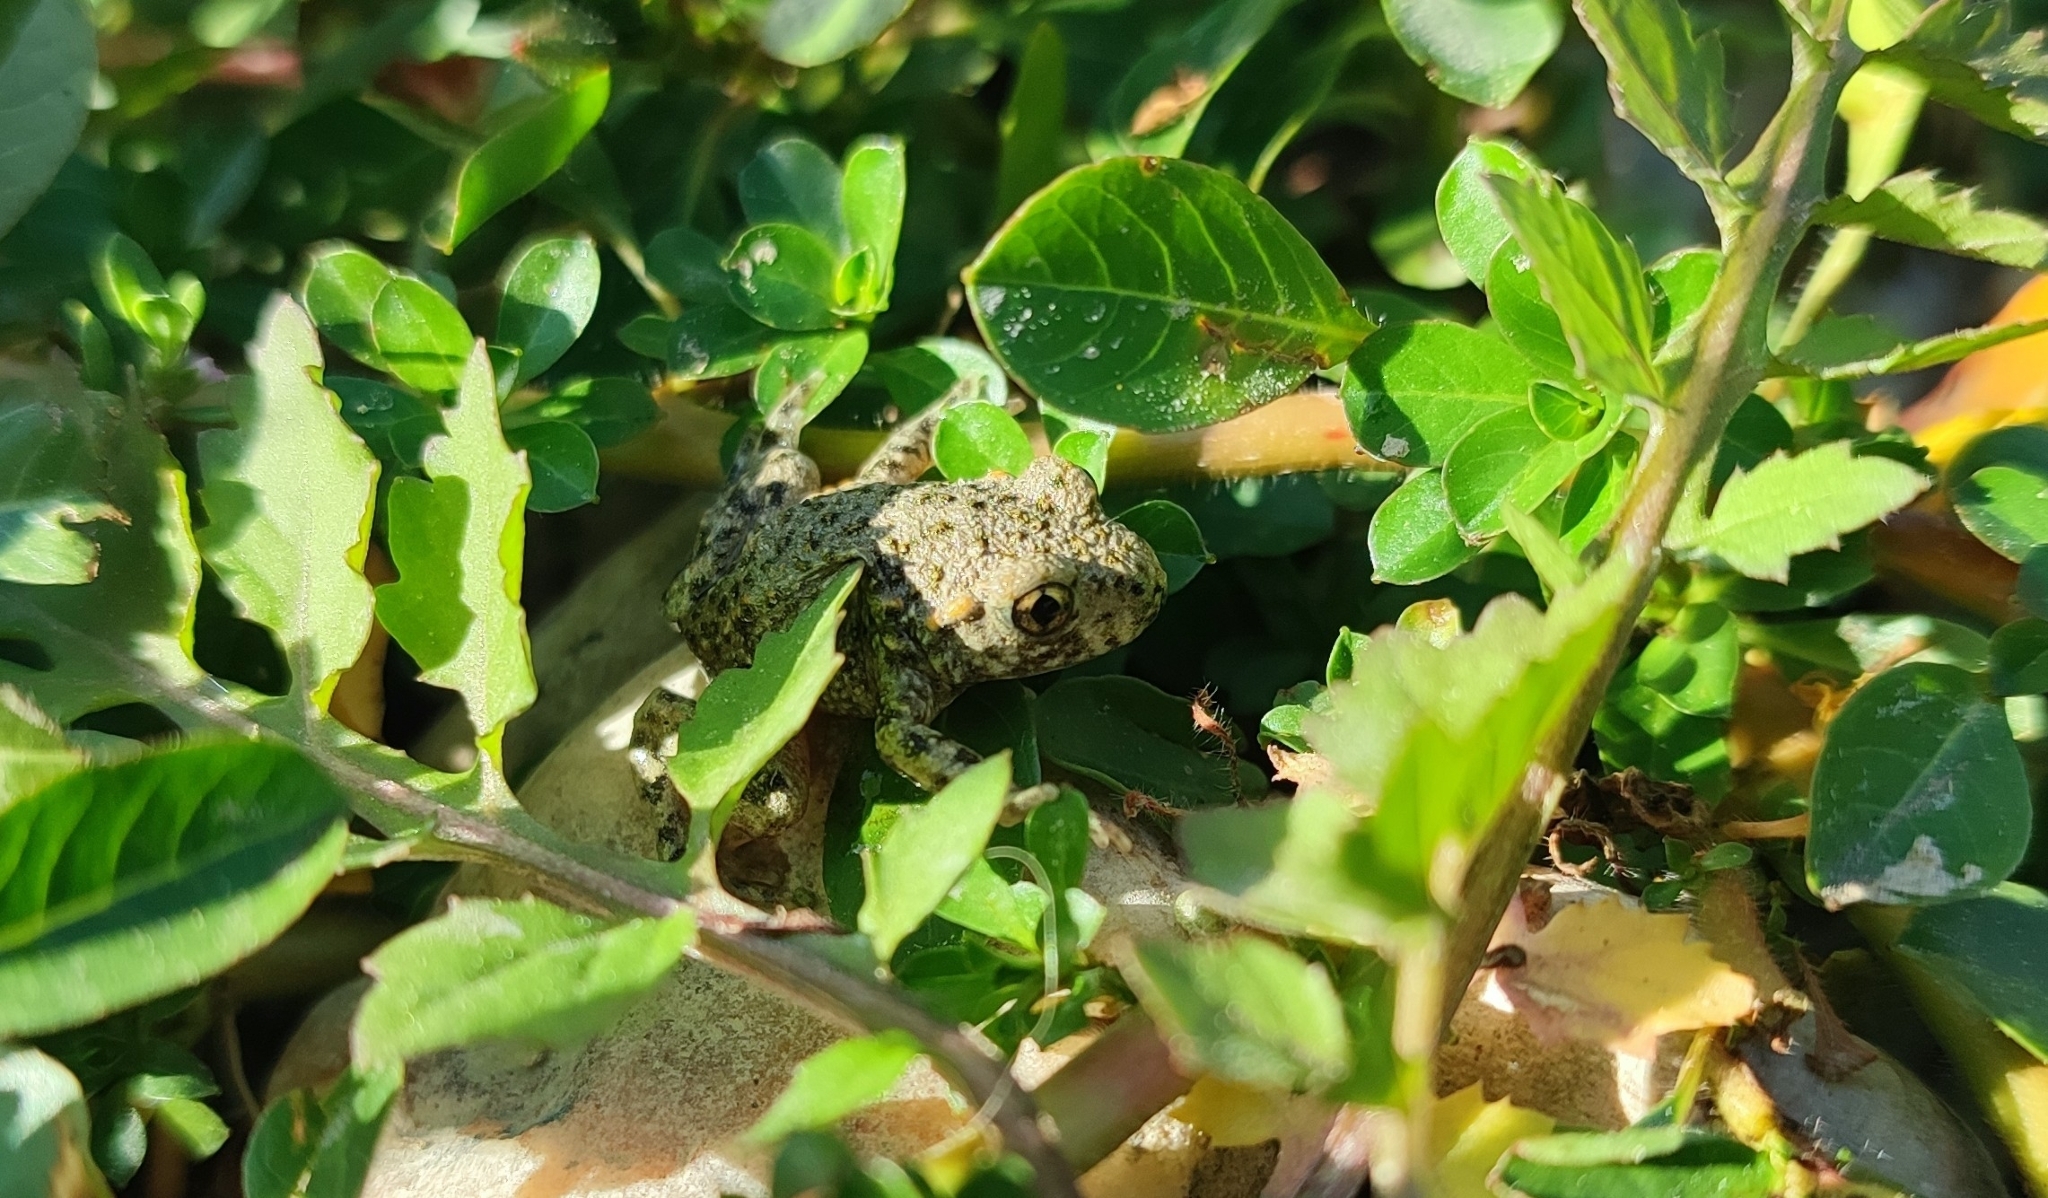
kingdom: Animalia
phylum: Chordata
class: Amphibia
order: Anura
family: Alytidae
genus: Alytes
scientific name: Alytes obstetricans
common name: Midwife toad
